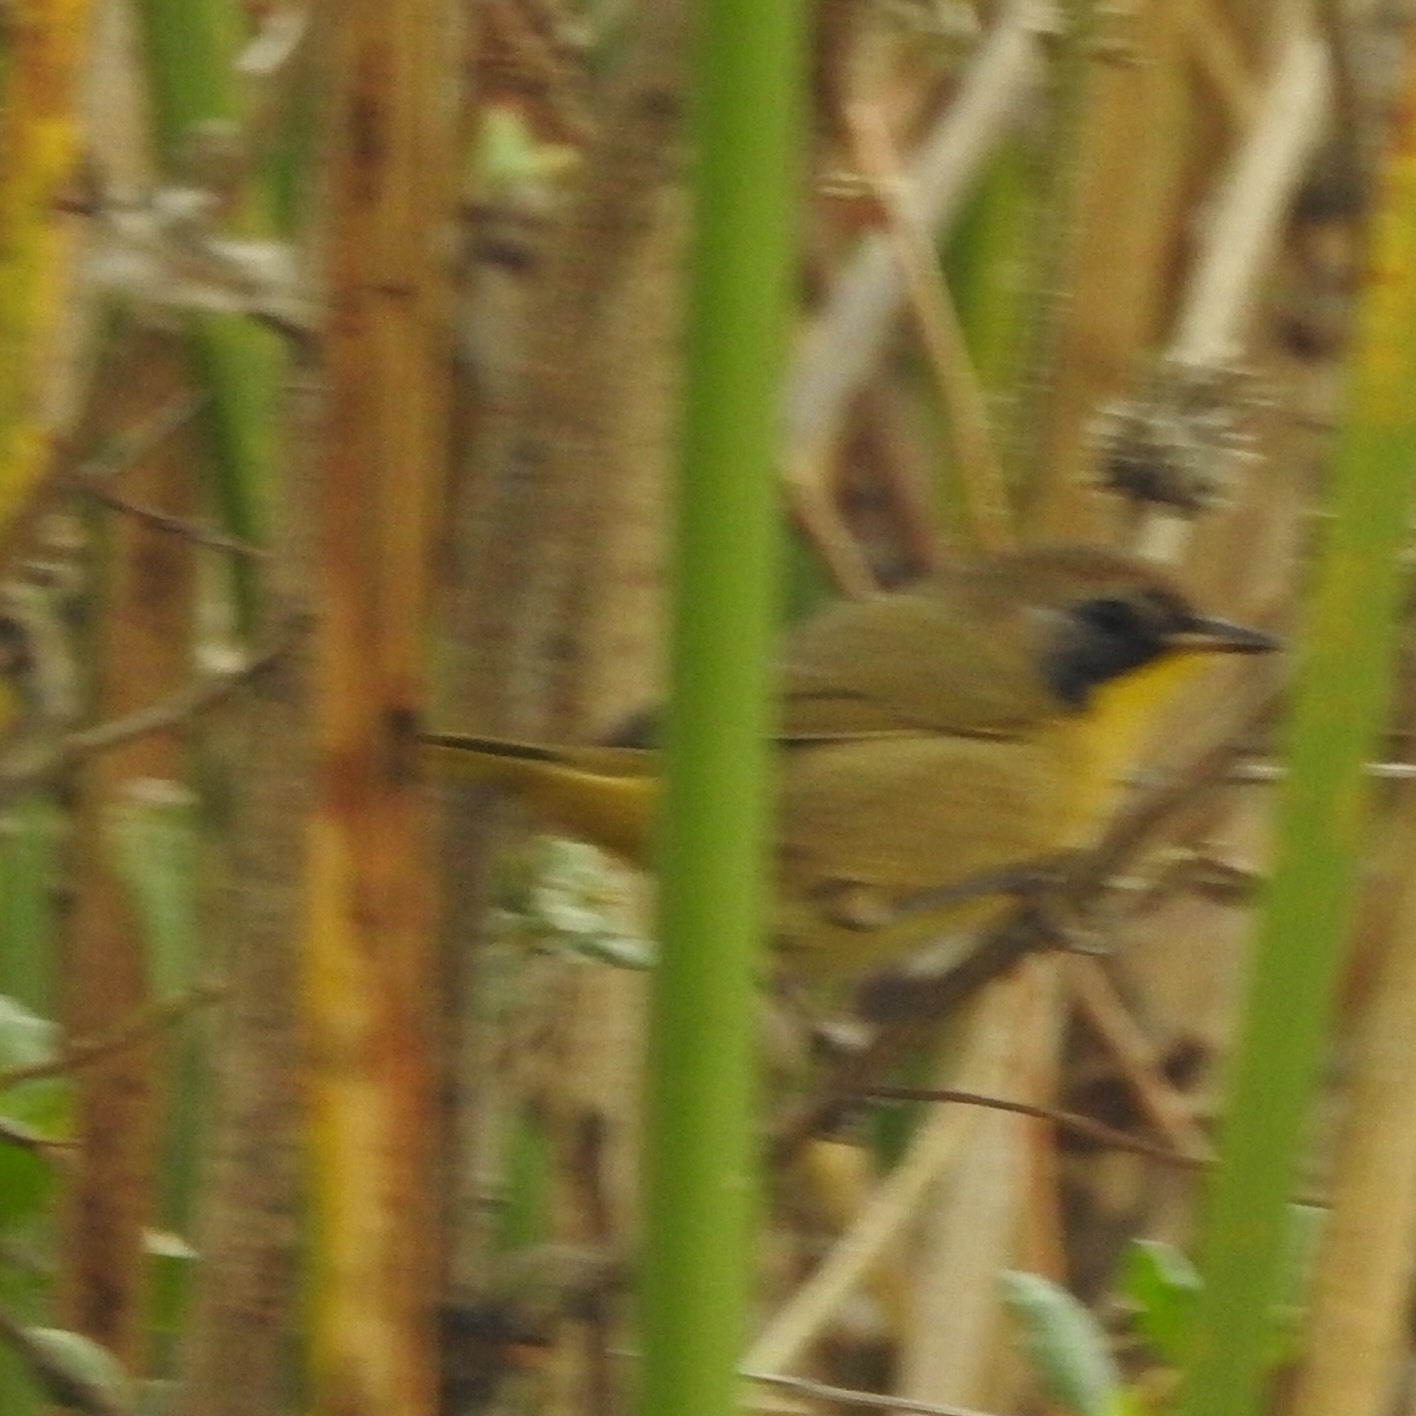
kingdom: Animalia
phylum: Chordata
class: Aves
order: Passeriformes
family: Parulidae
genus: Geothlypis
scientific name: Geothlypis trichas
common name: Common yellowthroat
